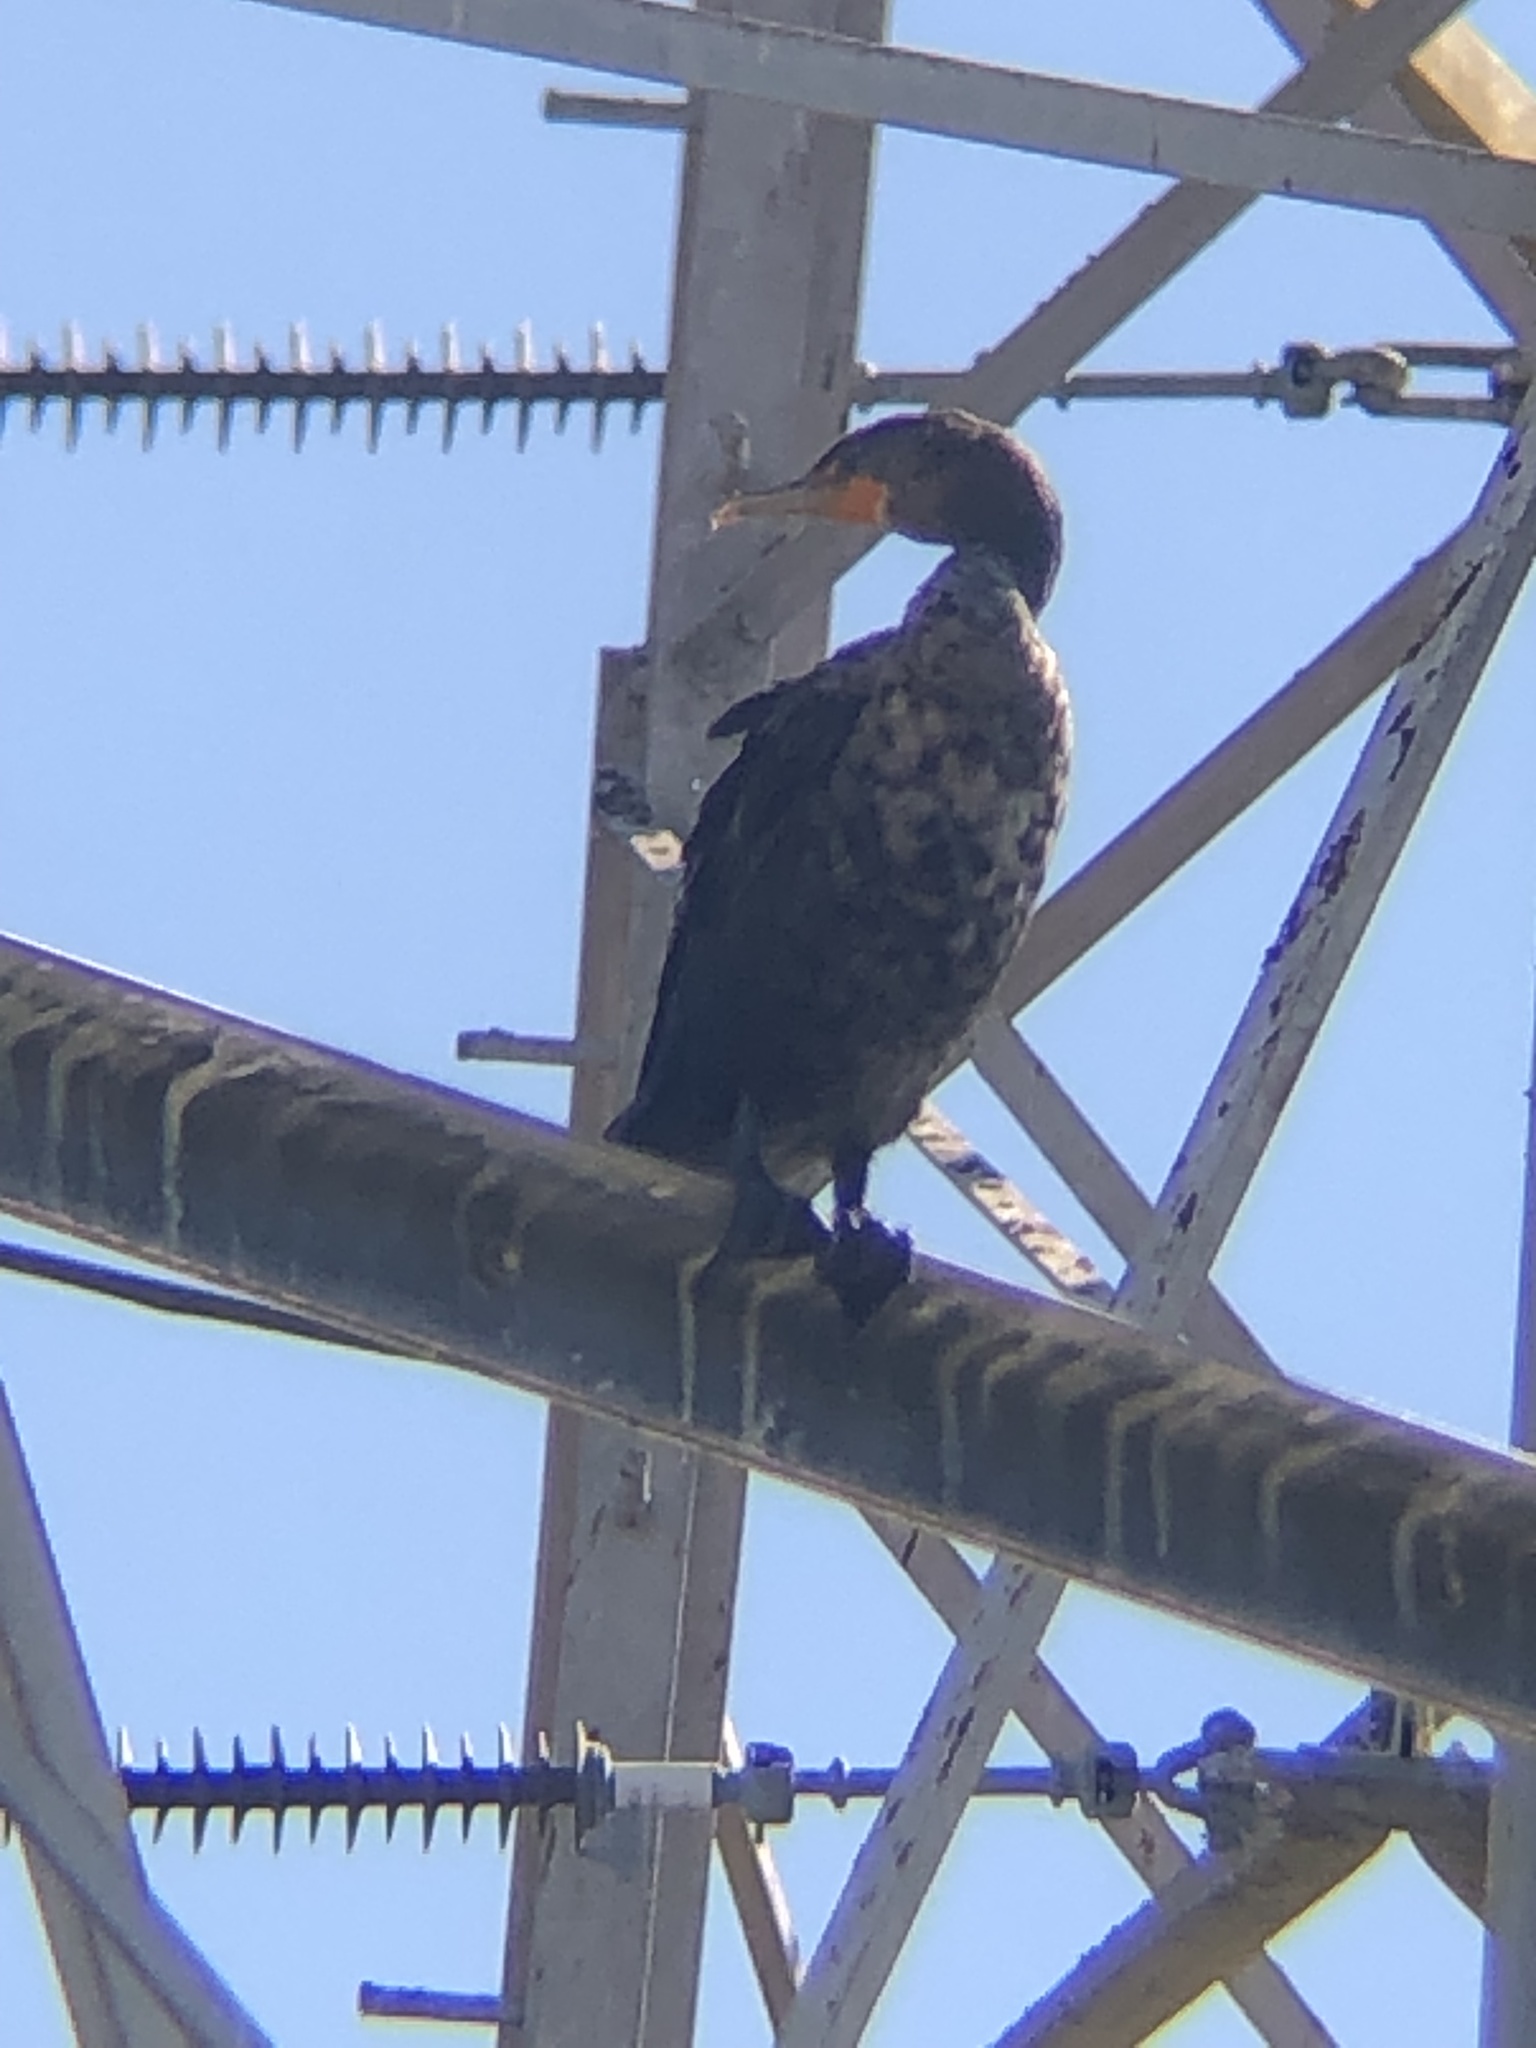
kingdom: Animalia
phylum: Chordata
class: Aves
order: Suliformes
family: Phalacrocoracidae
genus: Phalacrocorax
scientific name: Phalacrocorax auritus
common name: Double-crested cormorant
